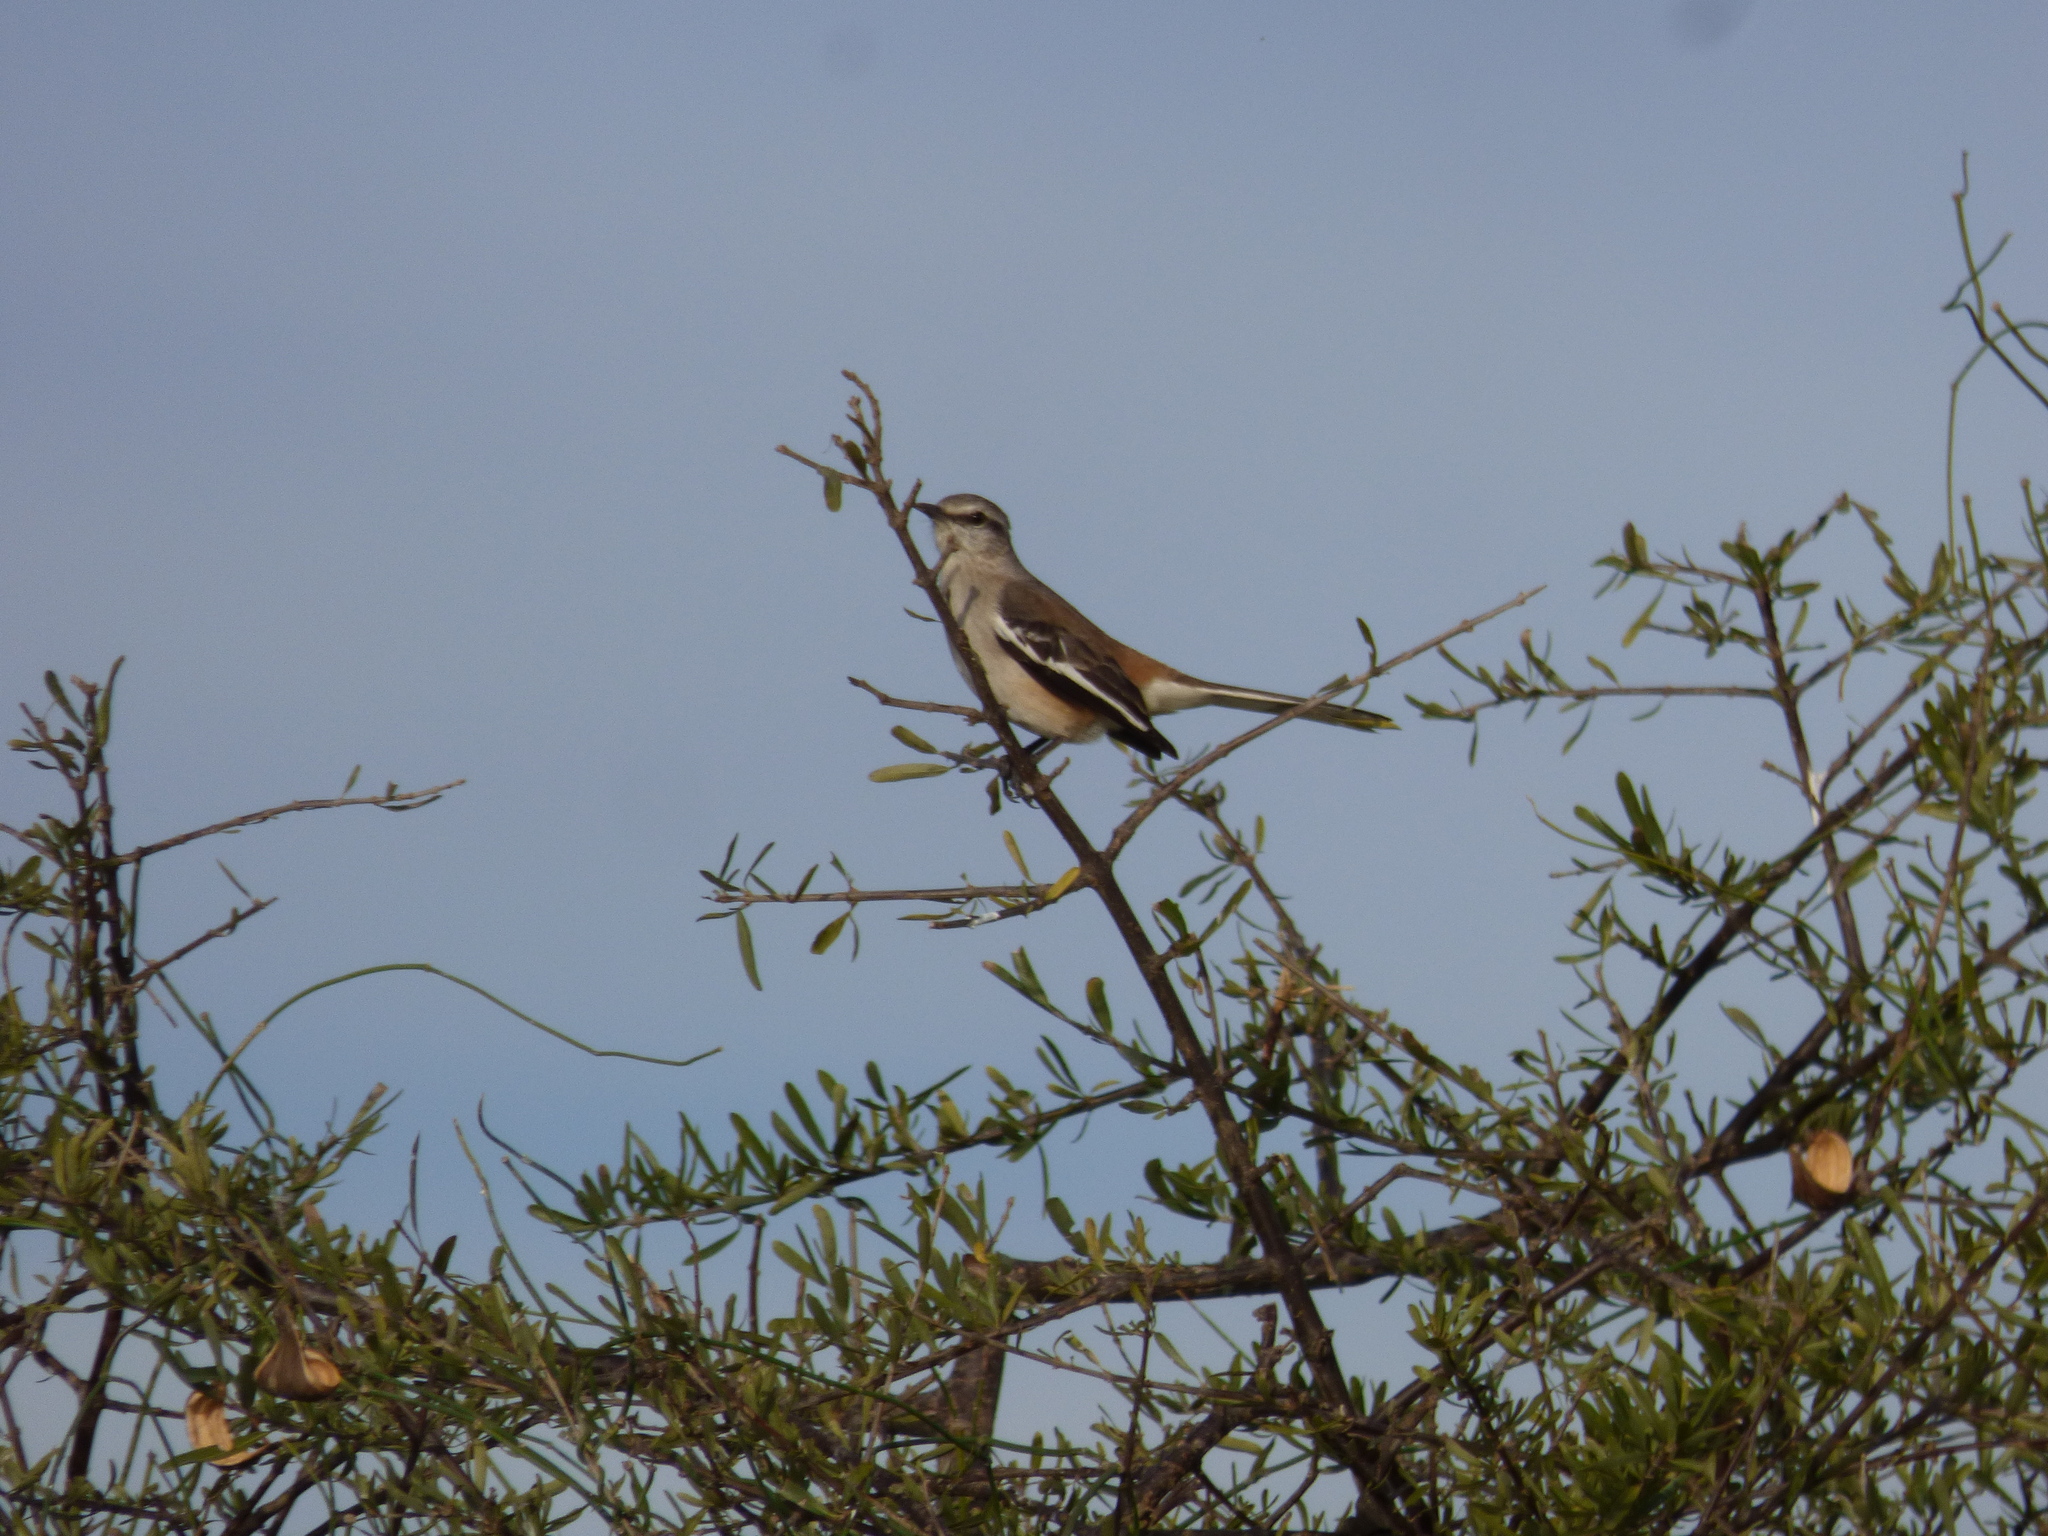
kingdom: Animalia
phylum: Chordata
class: Aves
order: Passeriformes
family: Mimidae
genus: Mimus
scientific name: Mimus triurus
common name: White-banded mockingbird
